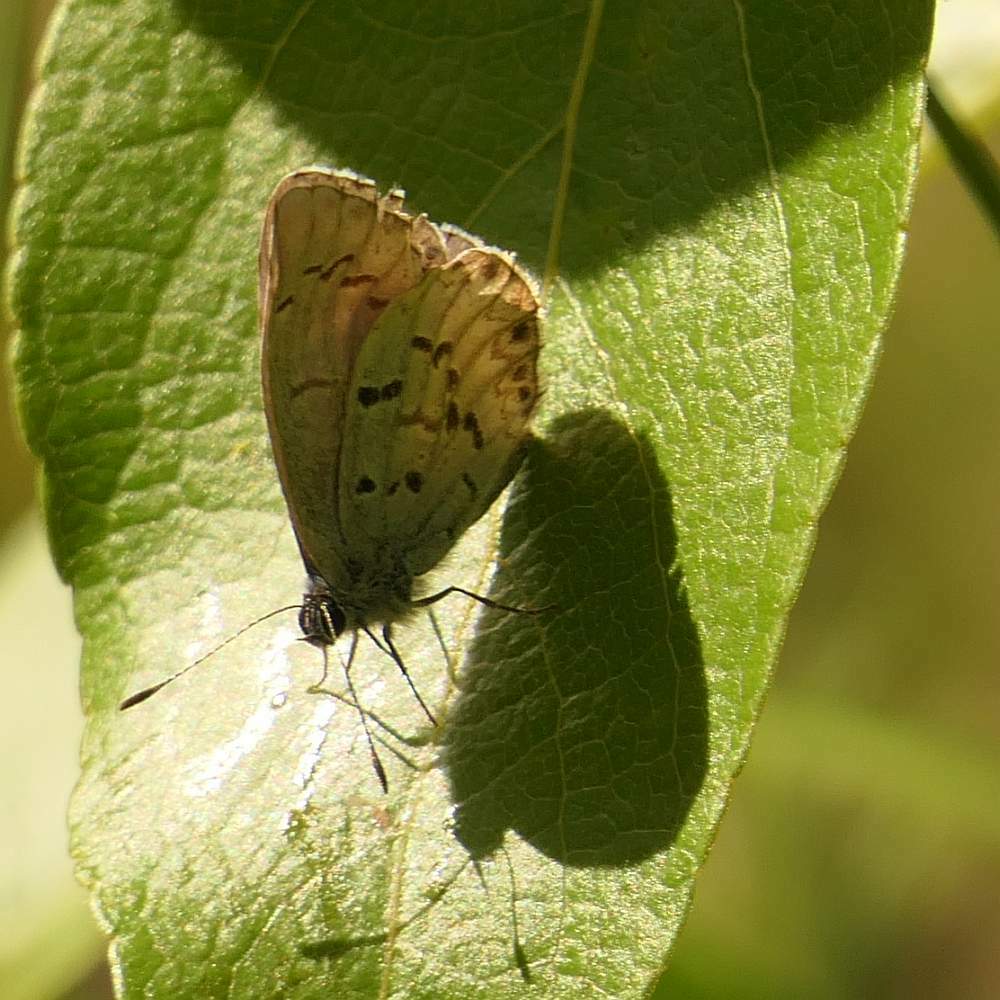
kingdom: Animalia
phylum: Arthropoda
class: Insecta
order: Lepidoptera
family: Lycaenidae
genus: Celastrina
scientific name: Celastrina lucia
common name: Lucia azure
